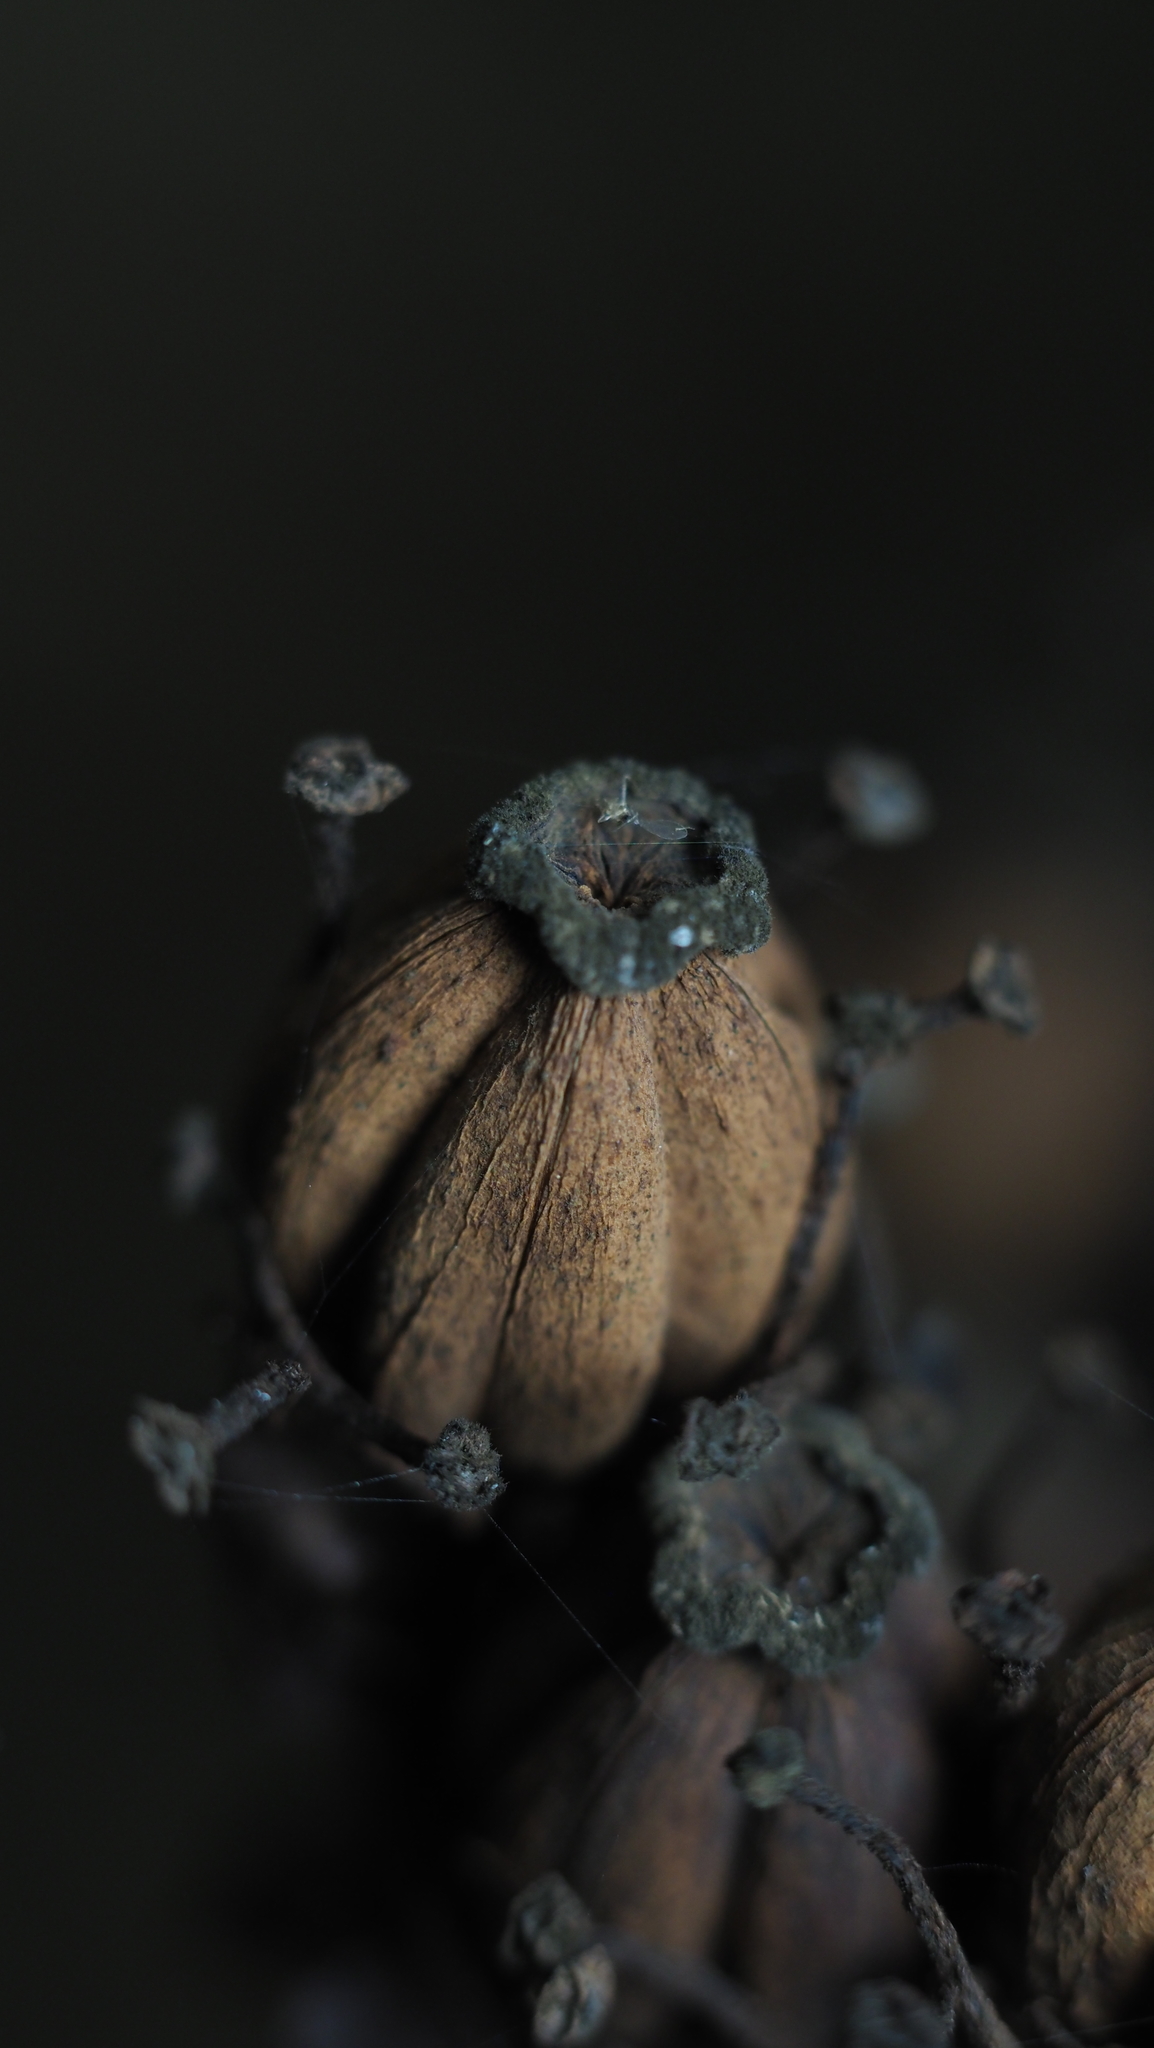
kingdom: Plantae
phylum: Tracheophyta
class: Magnoliopsida
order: Ericales
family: Ericaceae
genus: Monotropa
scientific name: Monotropa uniflora
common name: Convulsion root
